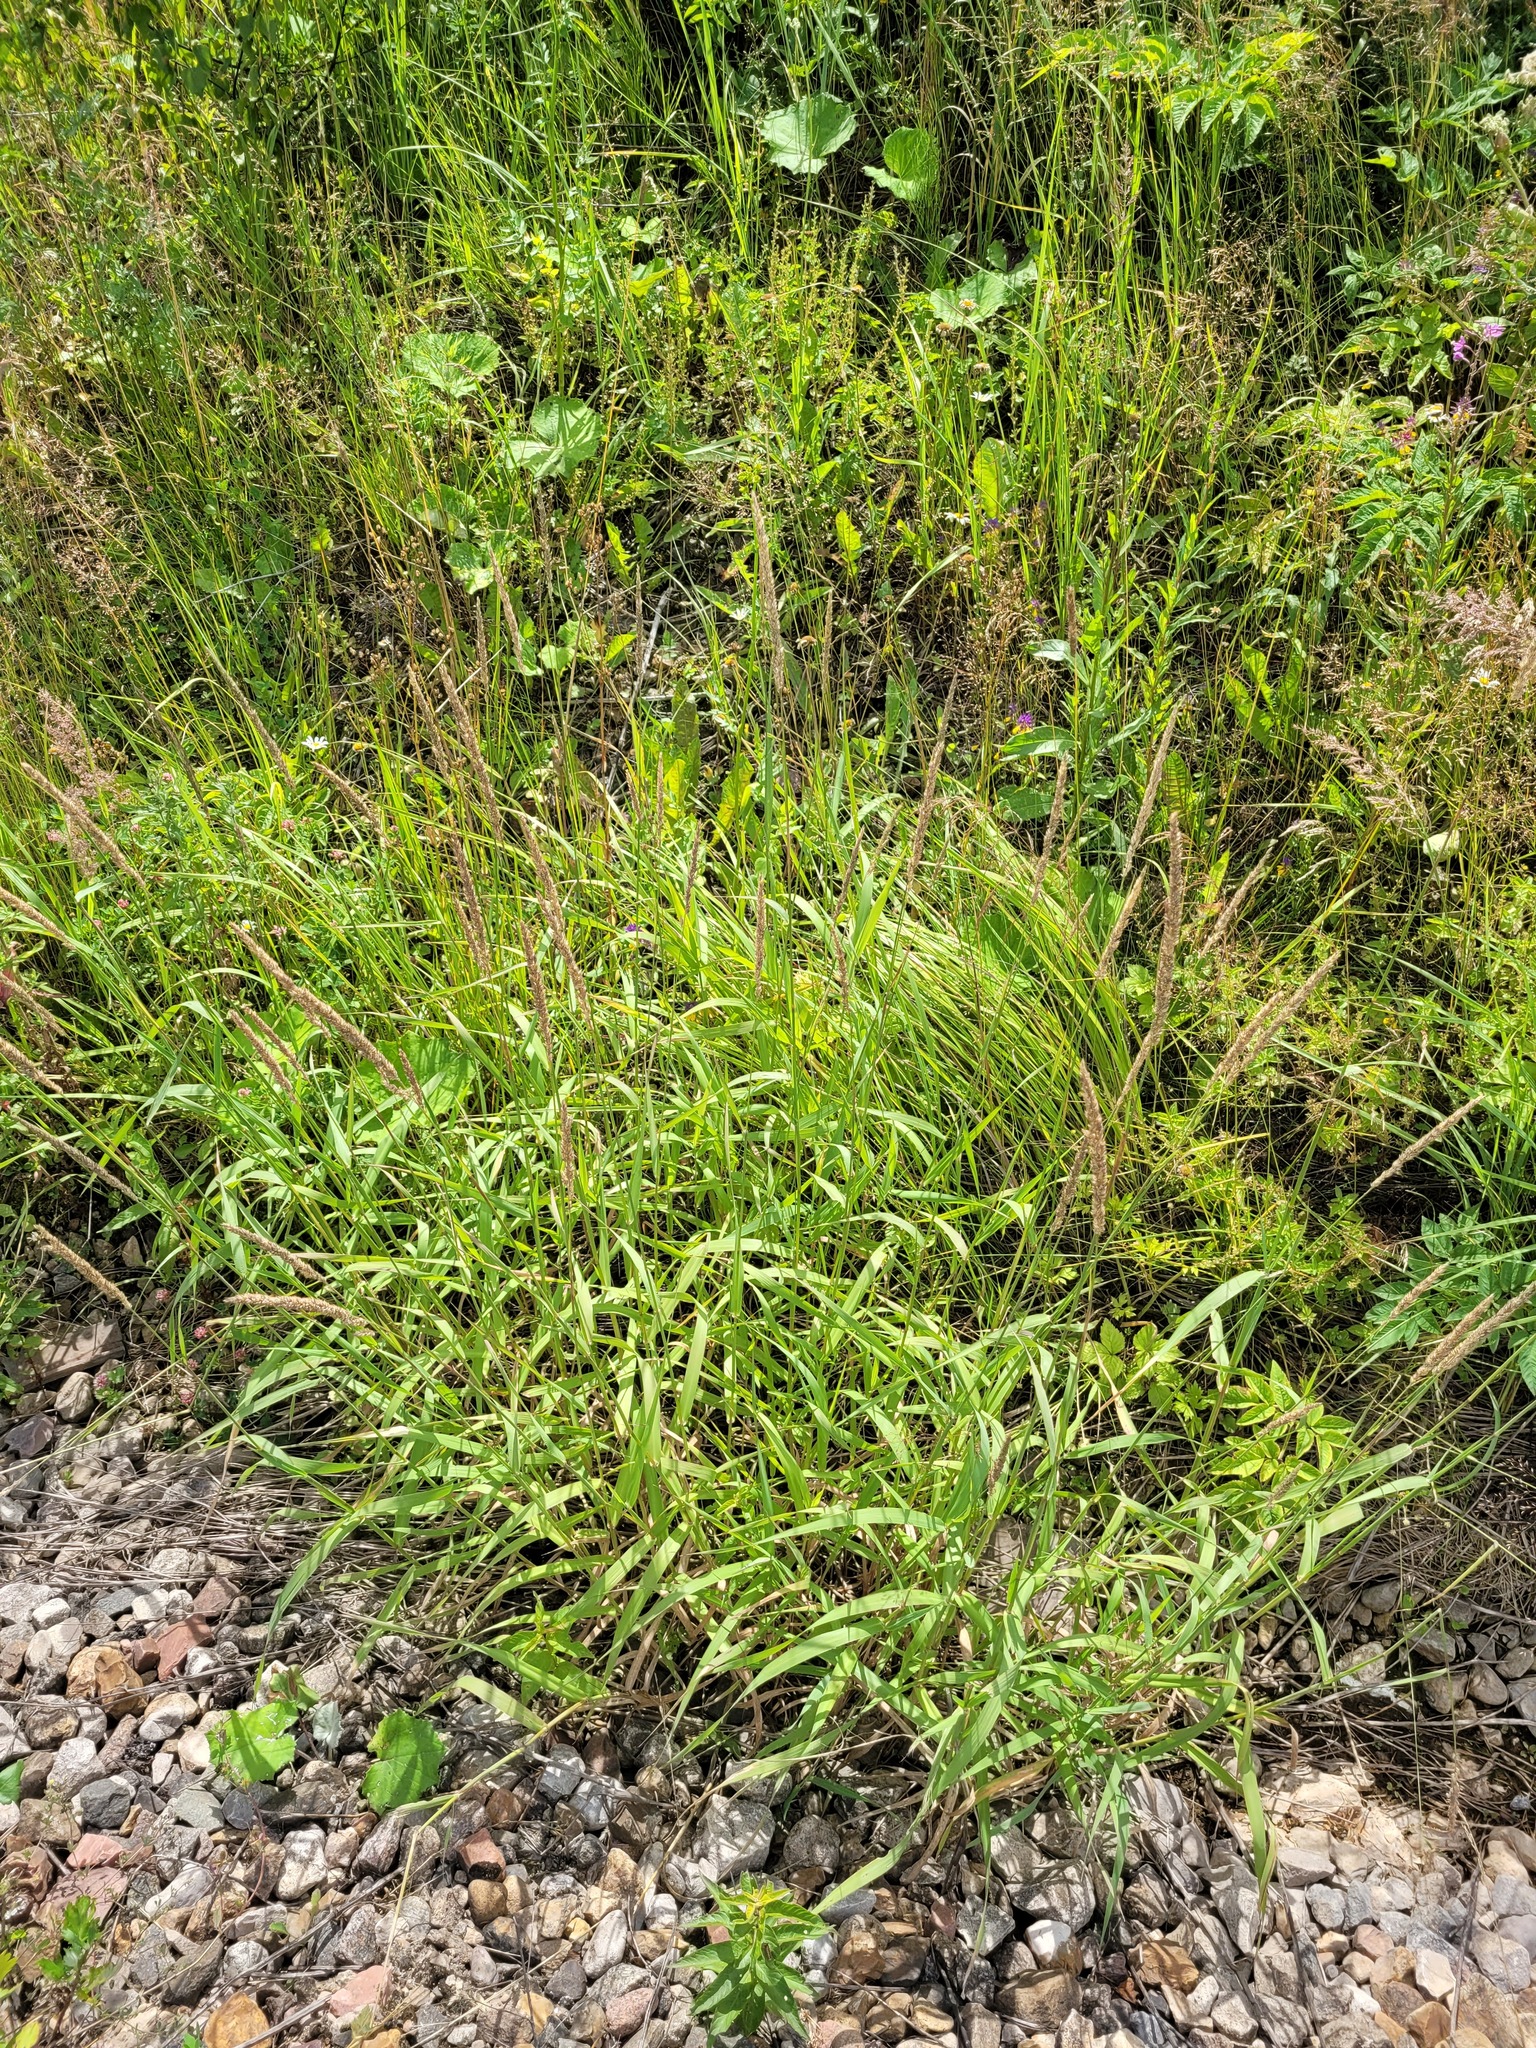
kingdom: Plantae
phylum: Tracheophyta
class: Liliopsida
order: Poales
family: Poaceae
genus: Phalaris
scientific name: Phalaris arundinacea
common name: Reed canary-grass
